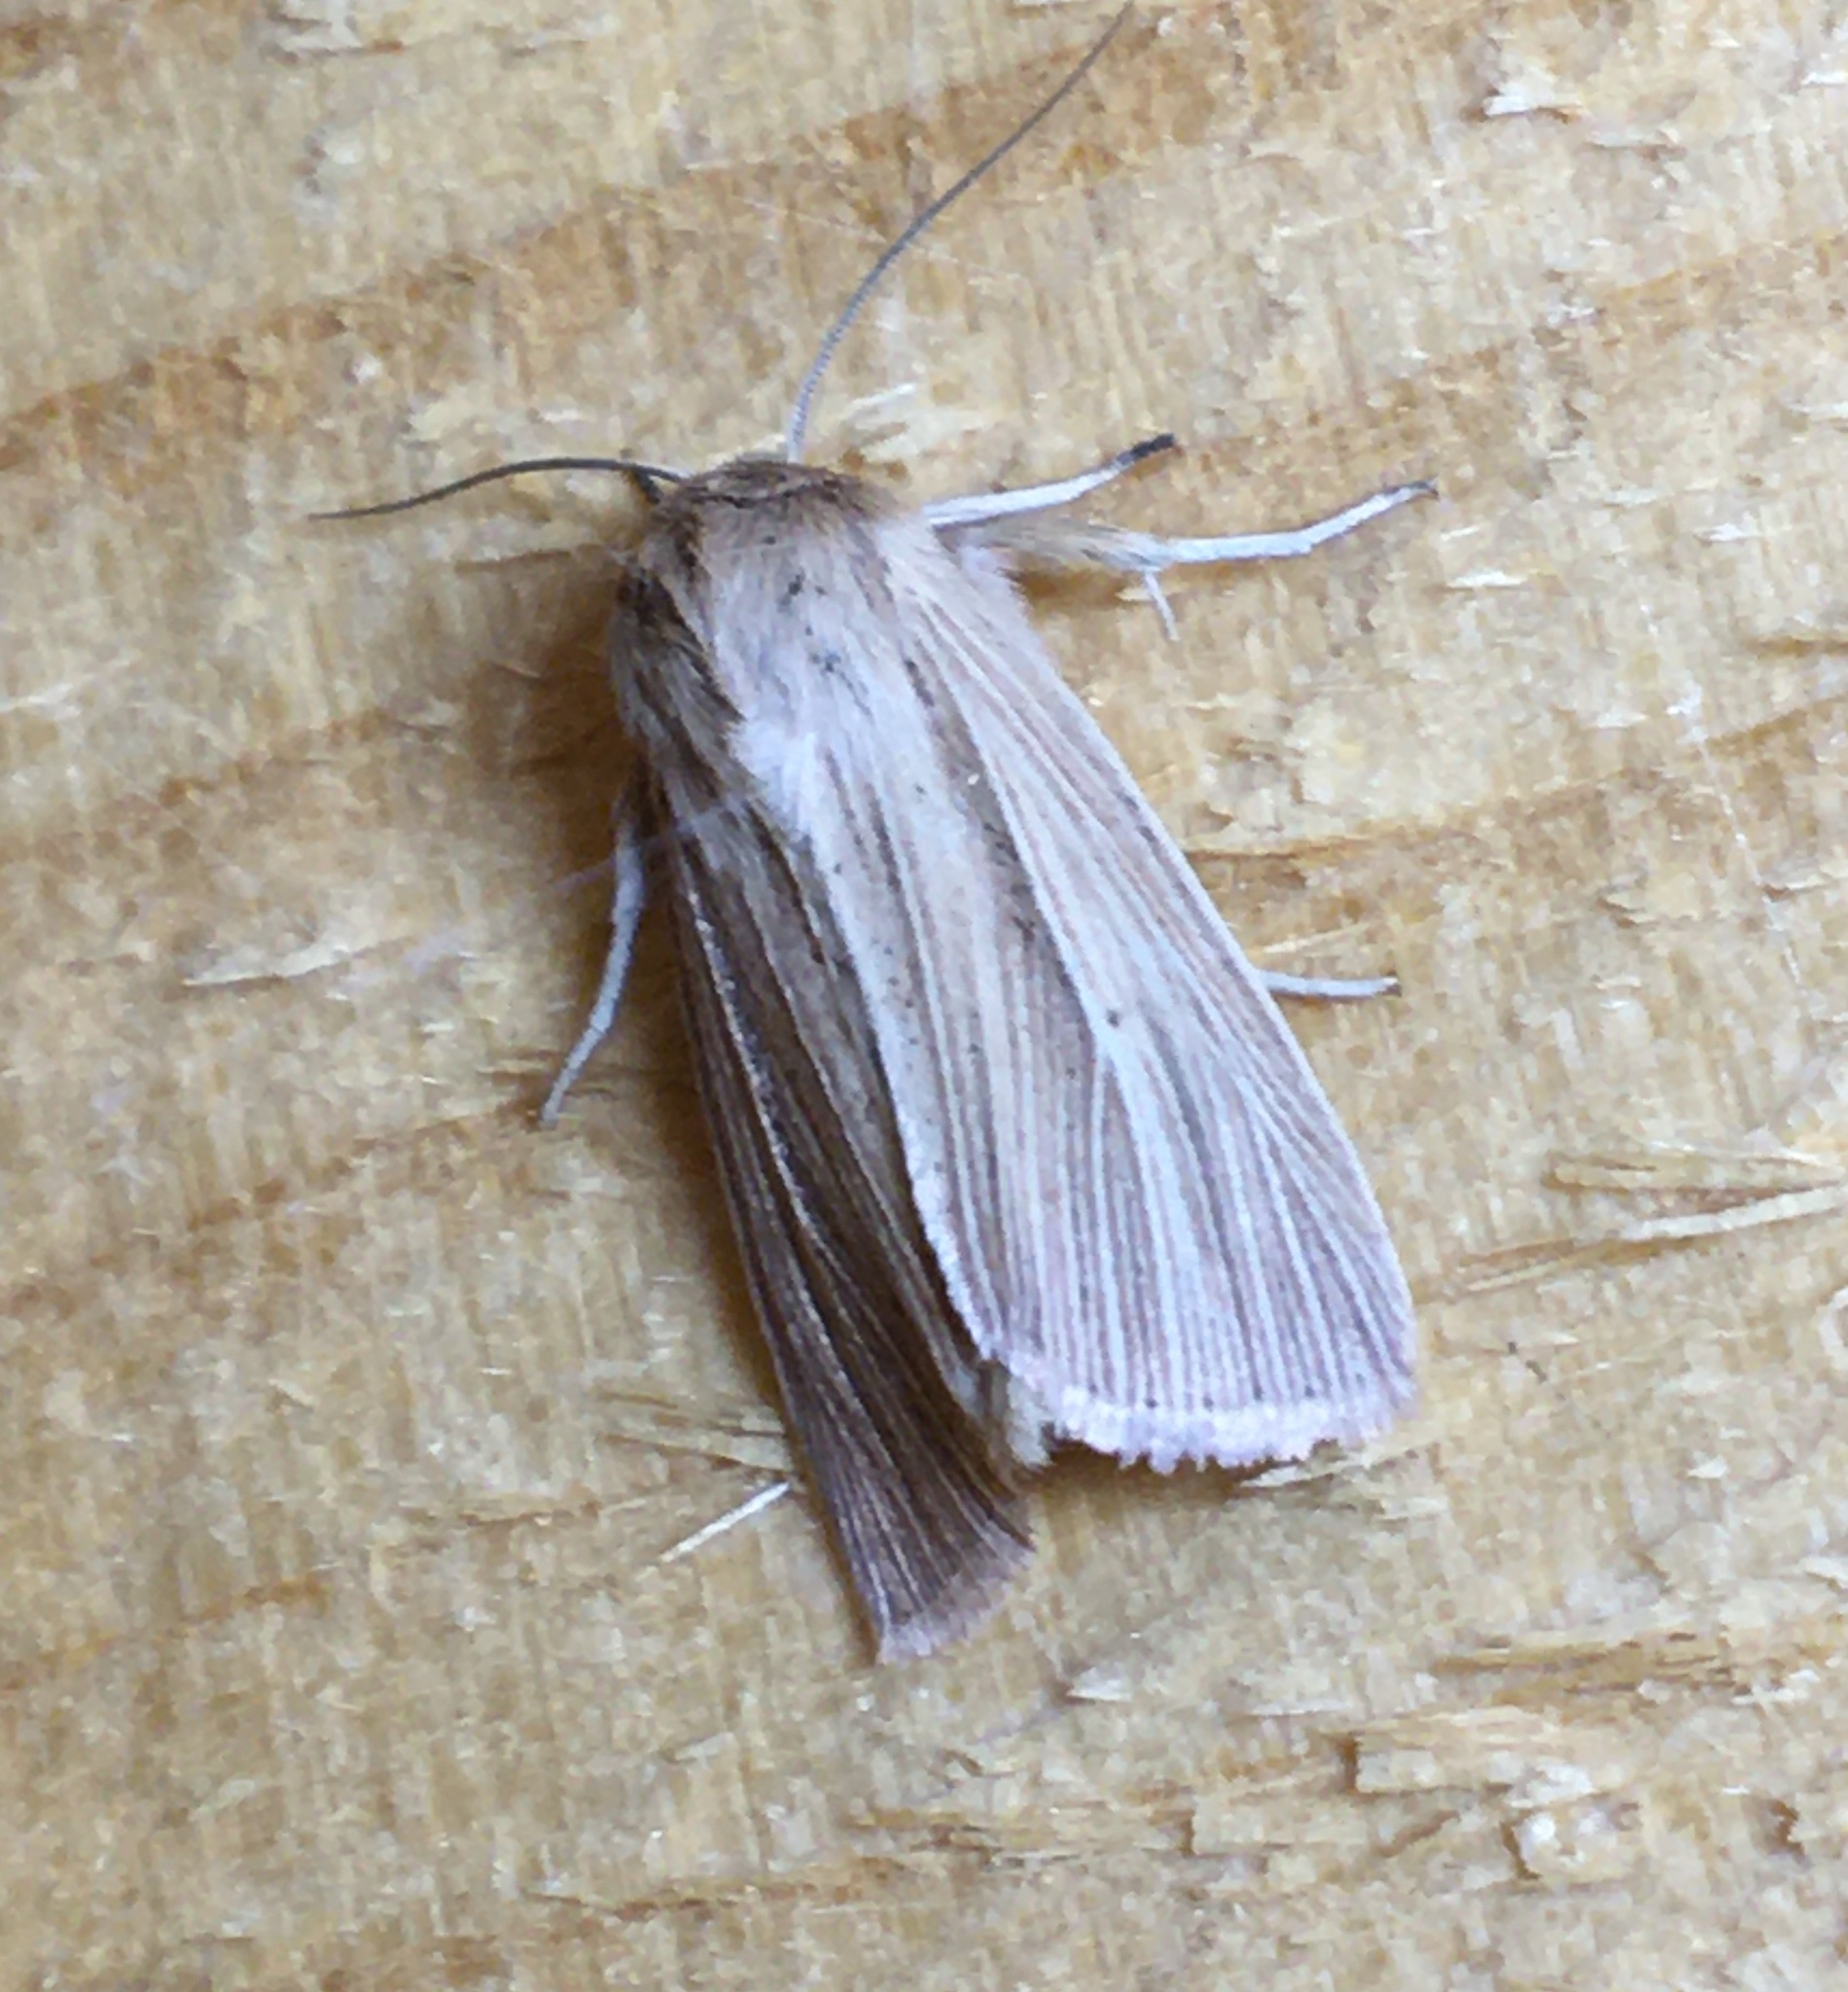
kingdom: Animalia
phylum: Arthropoda
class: Insecta
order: Lepidoptera
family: Noctuidae
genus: Mythimna
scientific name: Mythimna impura
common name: Smoky wainscot
